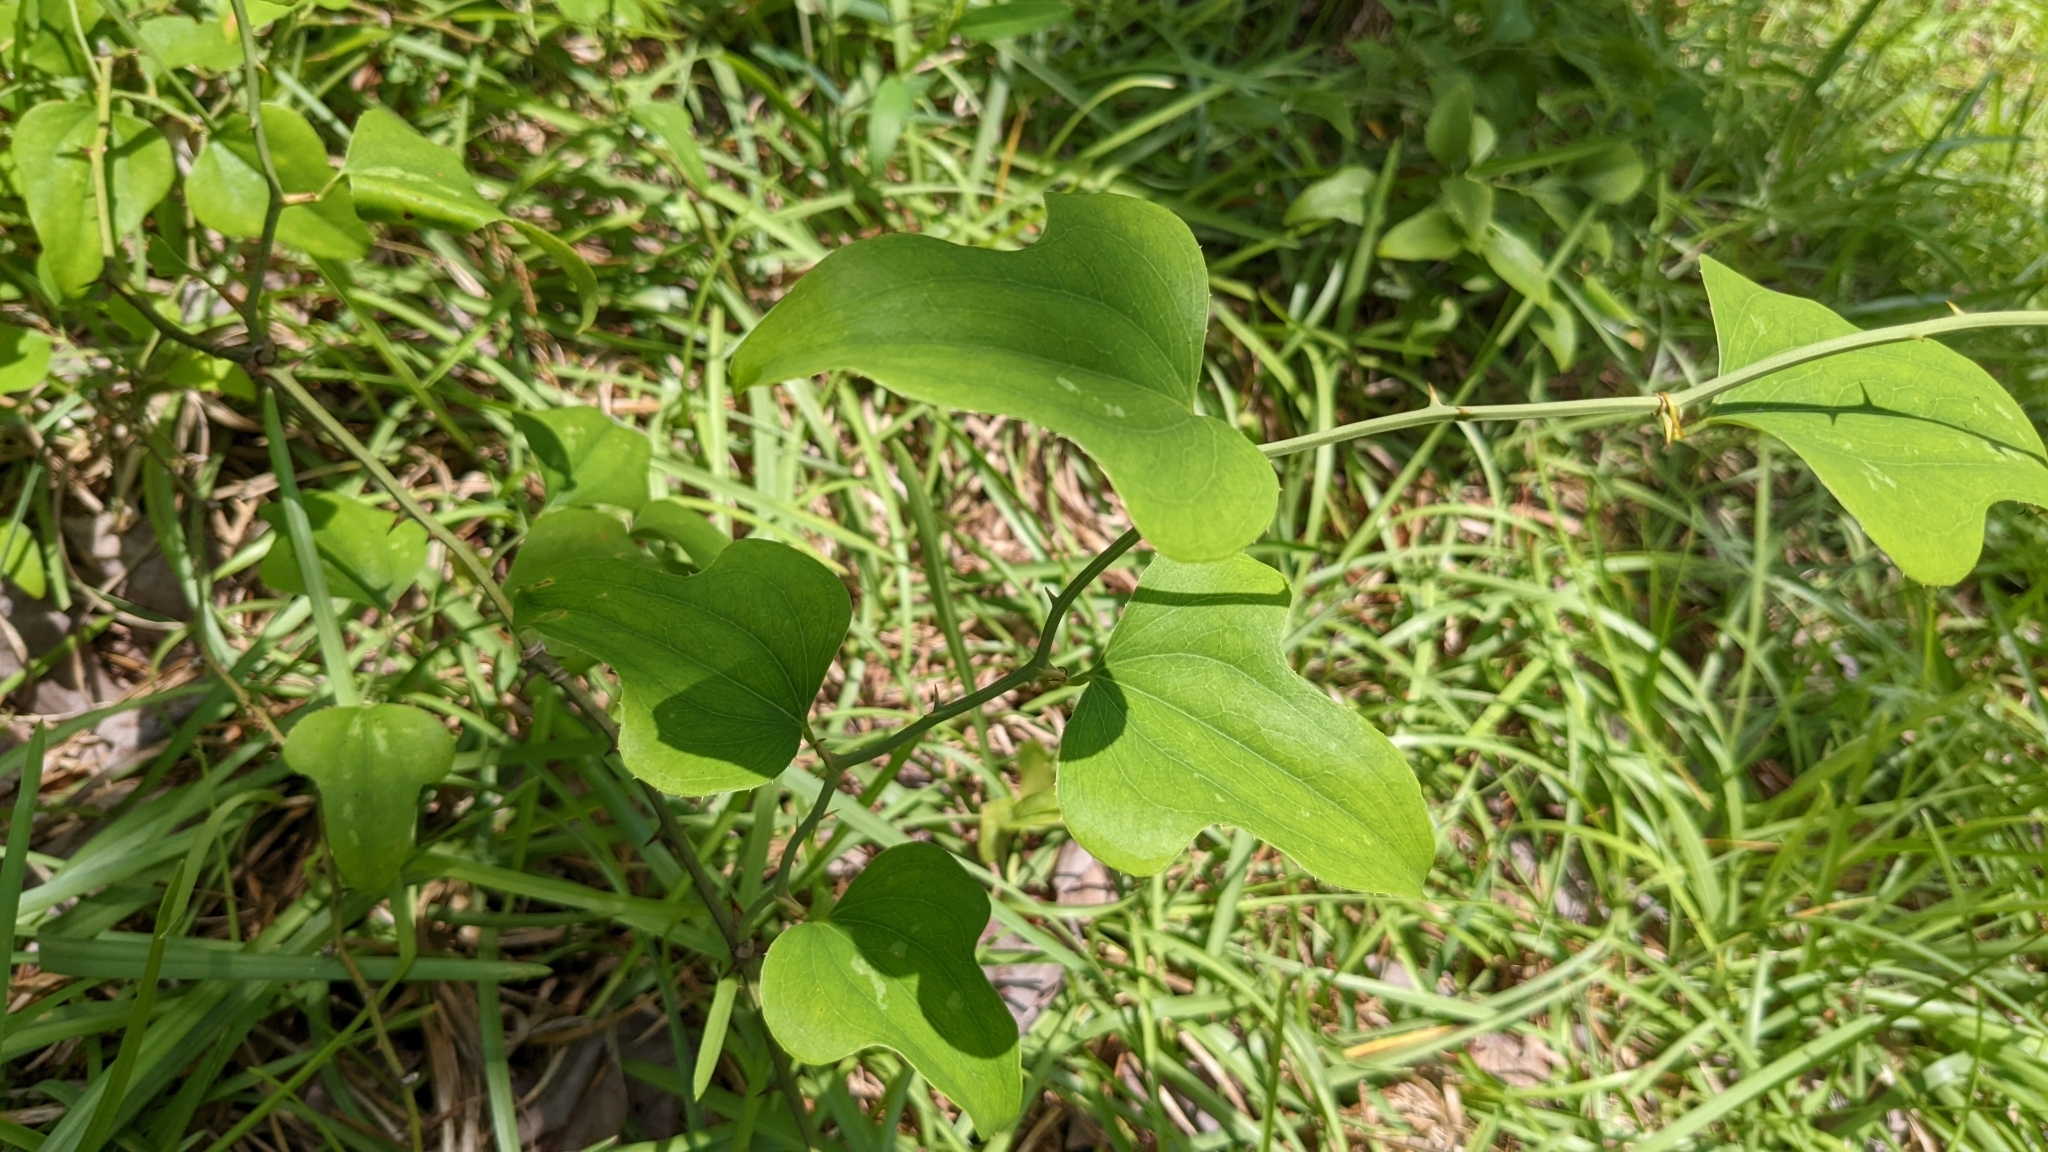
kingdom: Plantae
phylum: Tracheophyta
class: Liliopsida
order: Liliales
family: Smilacaceae
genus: Smilax
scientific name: Smilax bona-nox
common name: Catbrier
